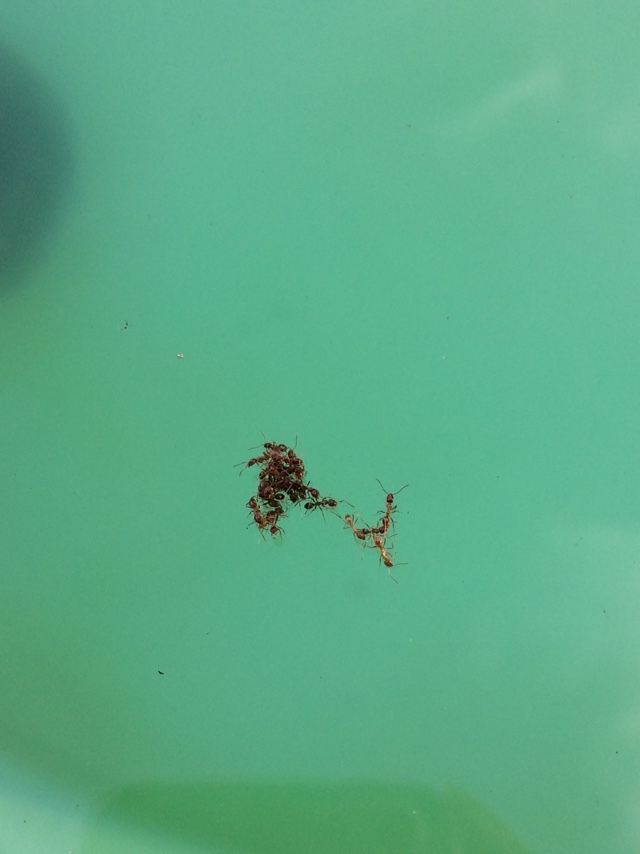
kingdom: Animalia
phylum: Arthropoda
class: Insecta
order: Hymenoptera
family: Formicidae
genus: Linepithema
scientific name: Linepithema humile
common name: Argentine ant
